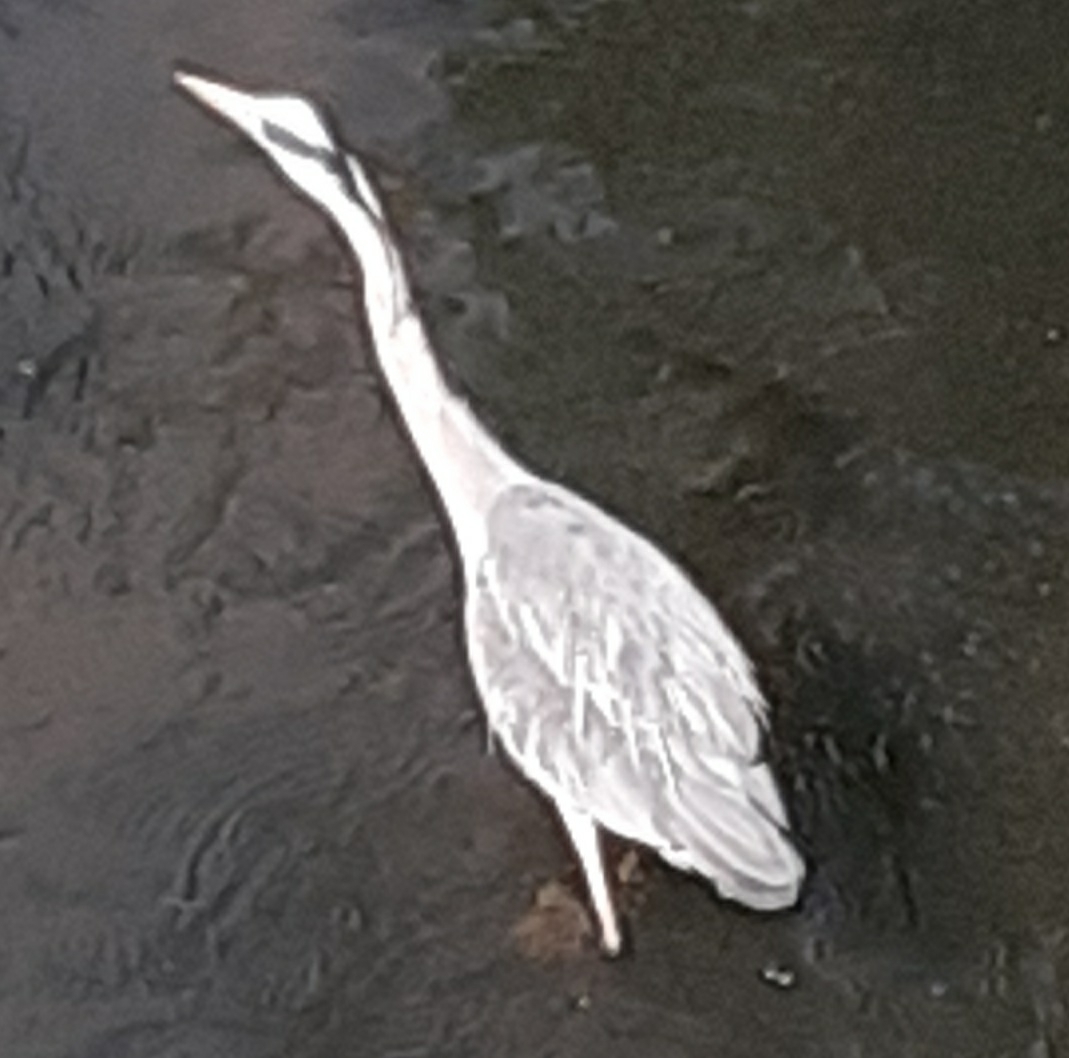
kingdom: Animalia
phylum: Chordata
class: Aves
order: Pelecaniformes
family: Ardeidae
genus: Ardea
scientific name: Ardea cinerea
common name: Grey heron
